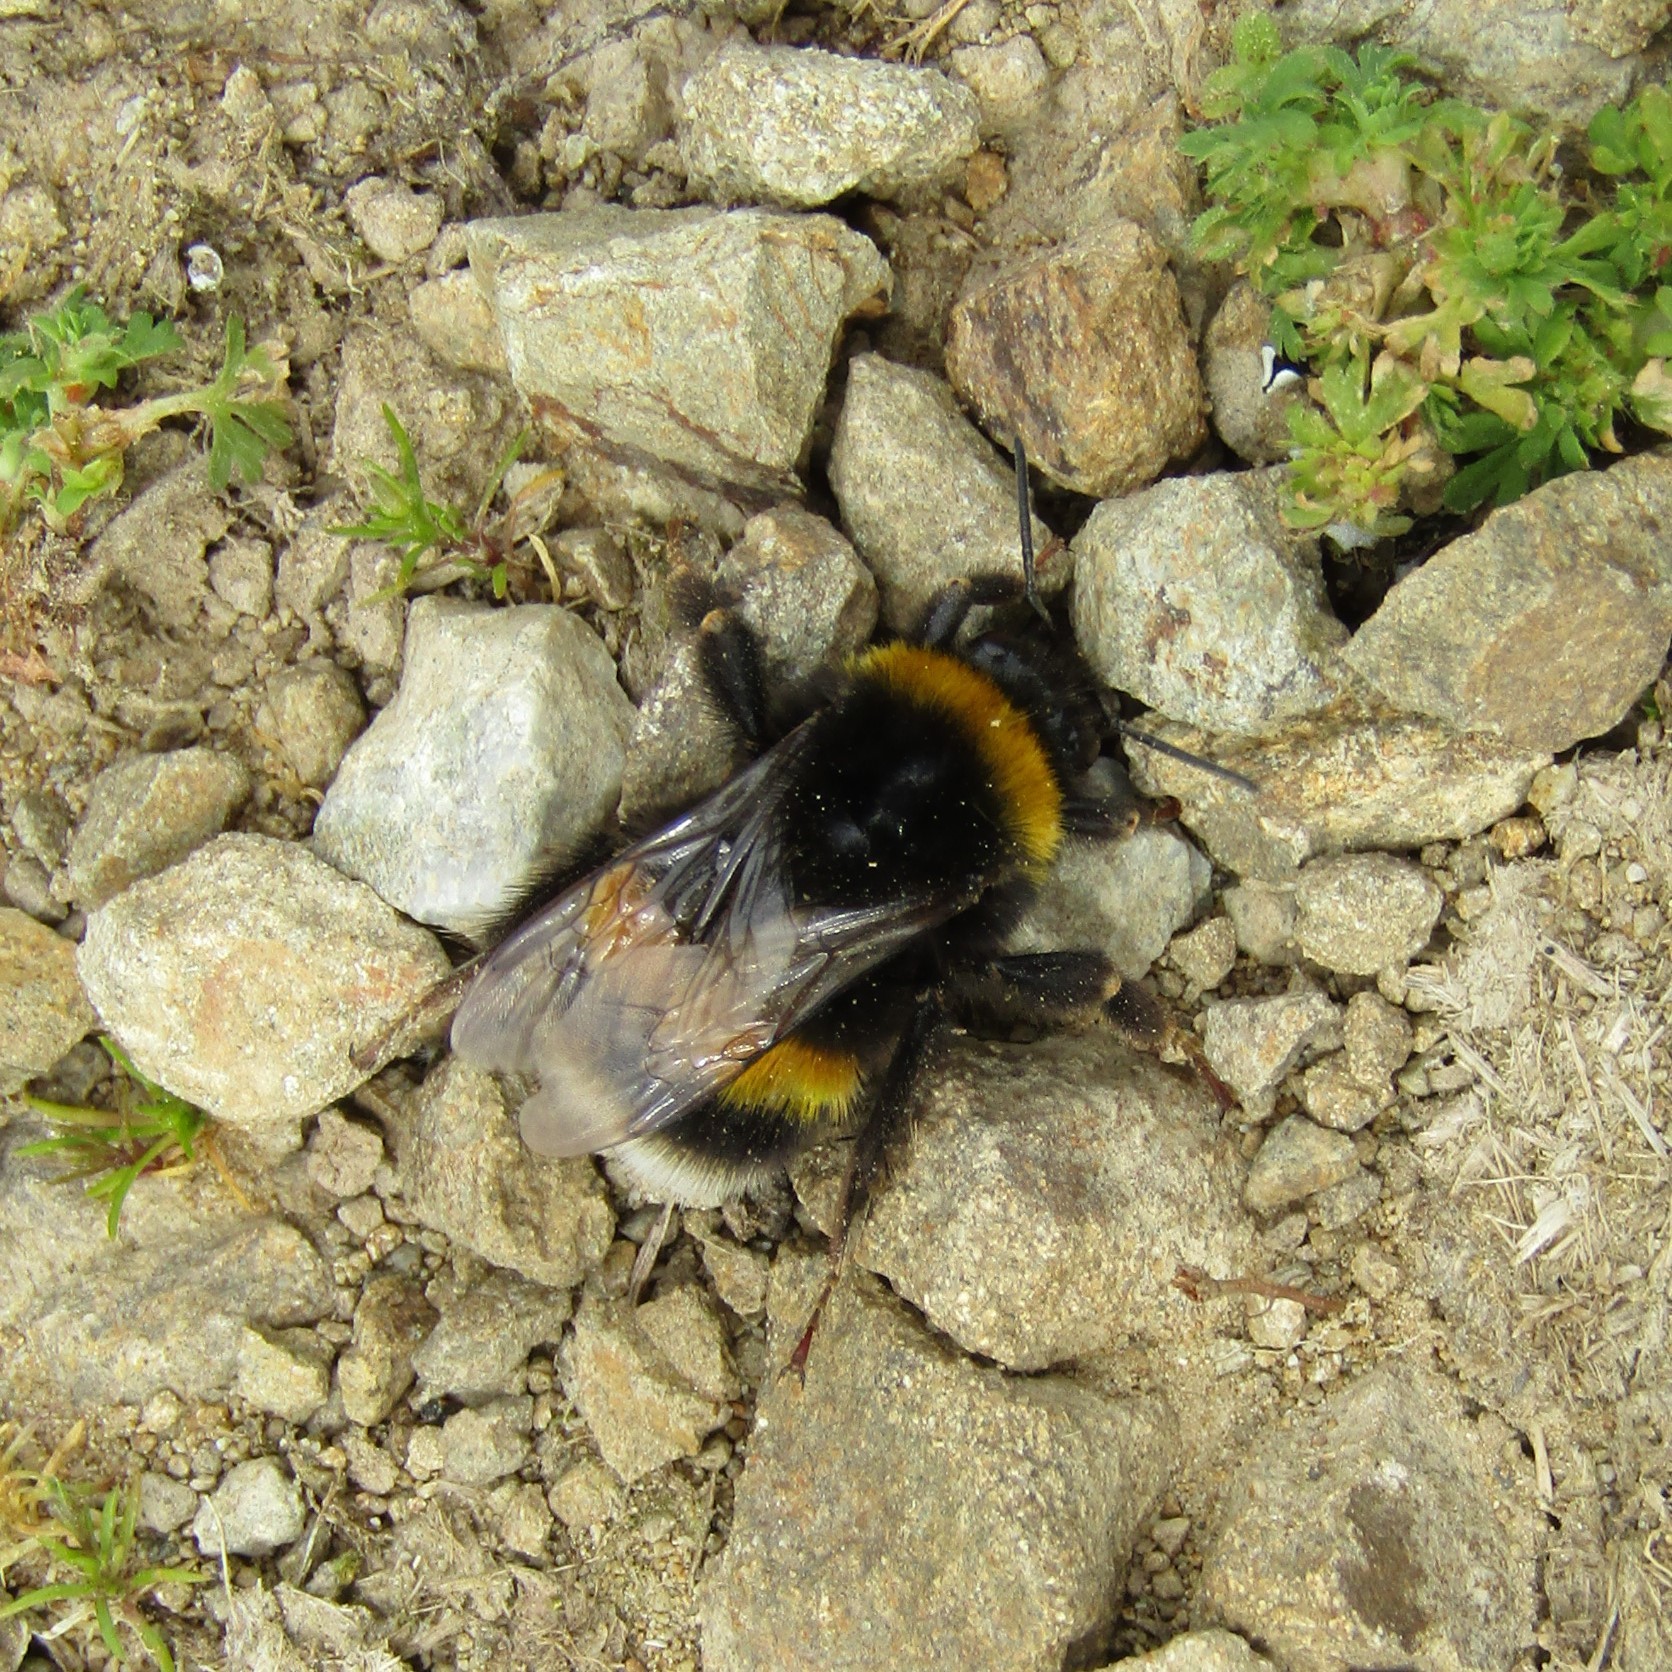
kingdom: Animalia
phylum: Arthropoda
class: Insecta
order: Hymenoptera
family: Apidae
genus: Bombus
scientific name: Bombus terrestris
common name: Buff-tailed bumblebee
